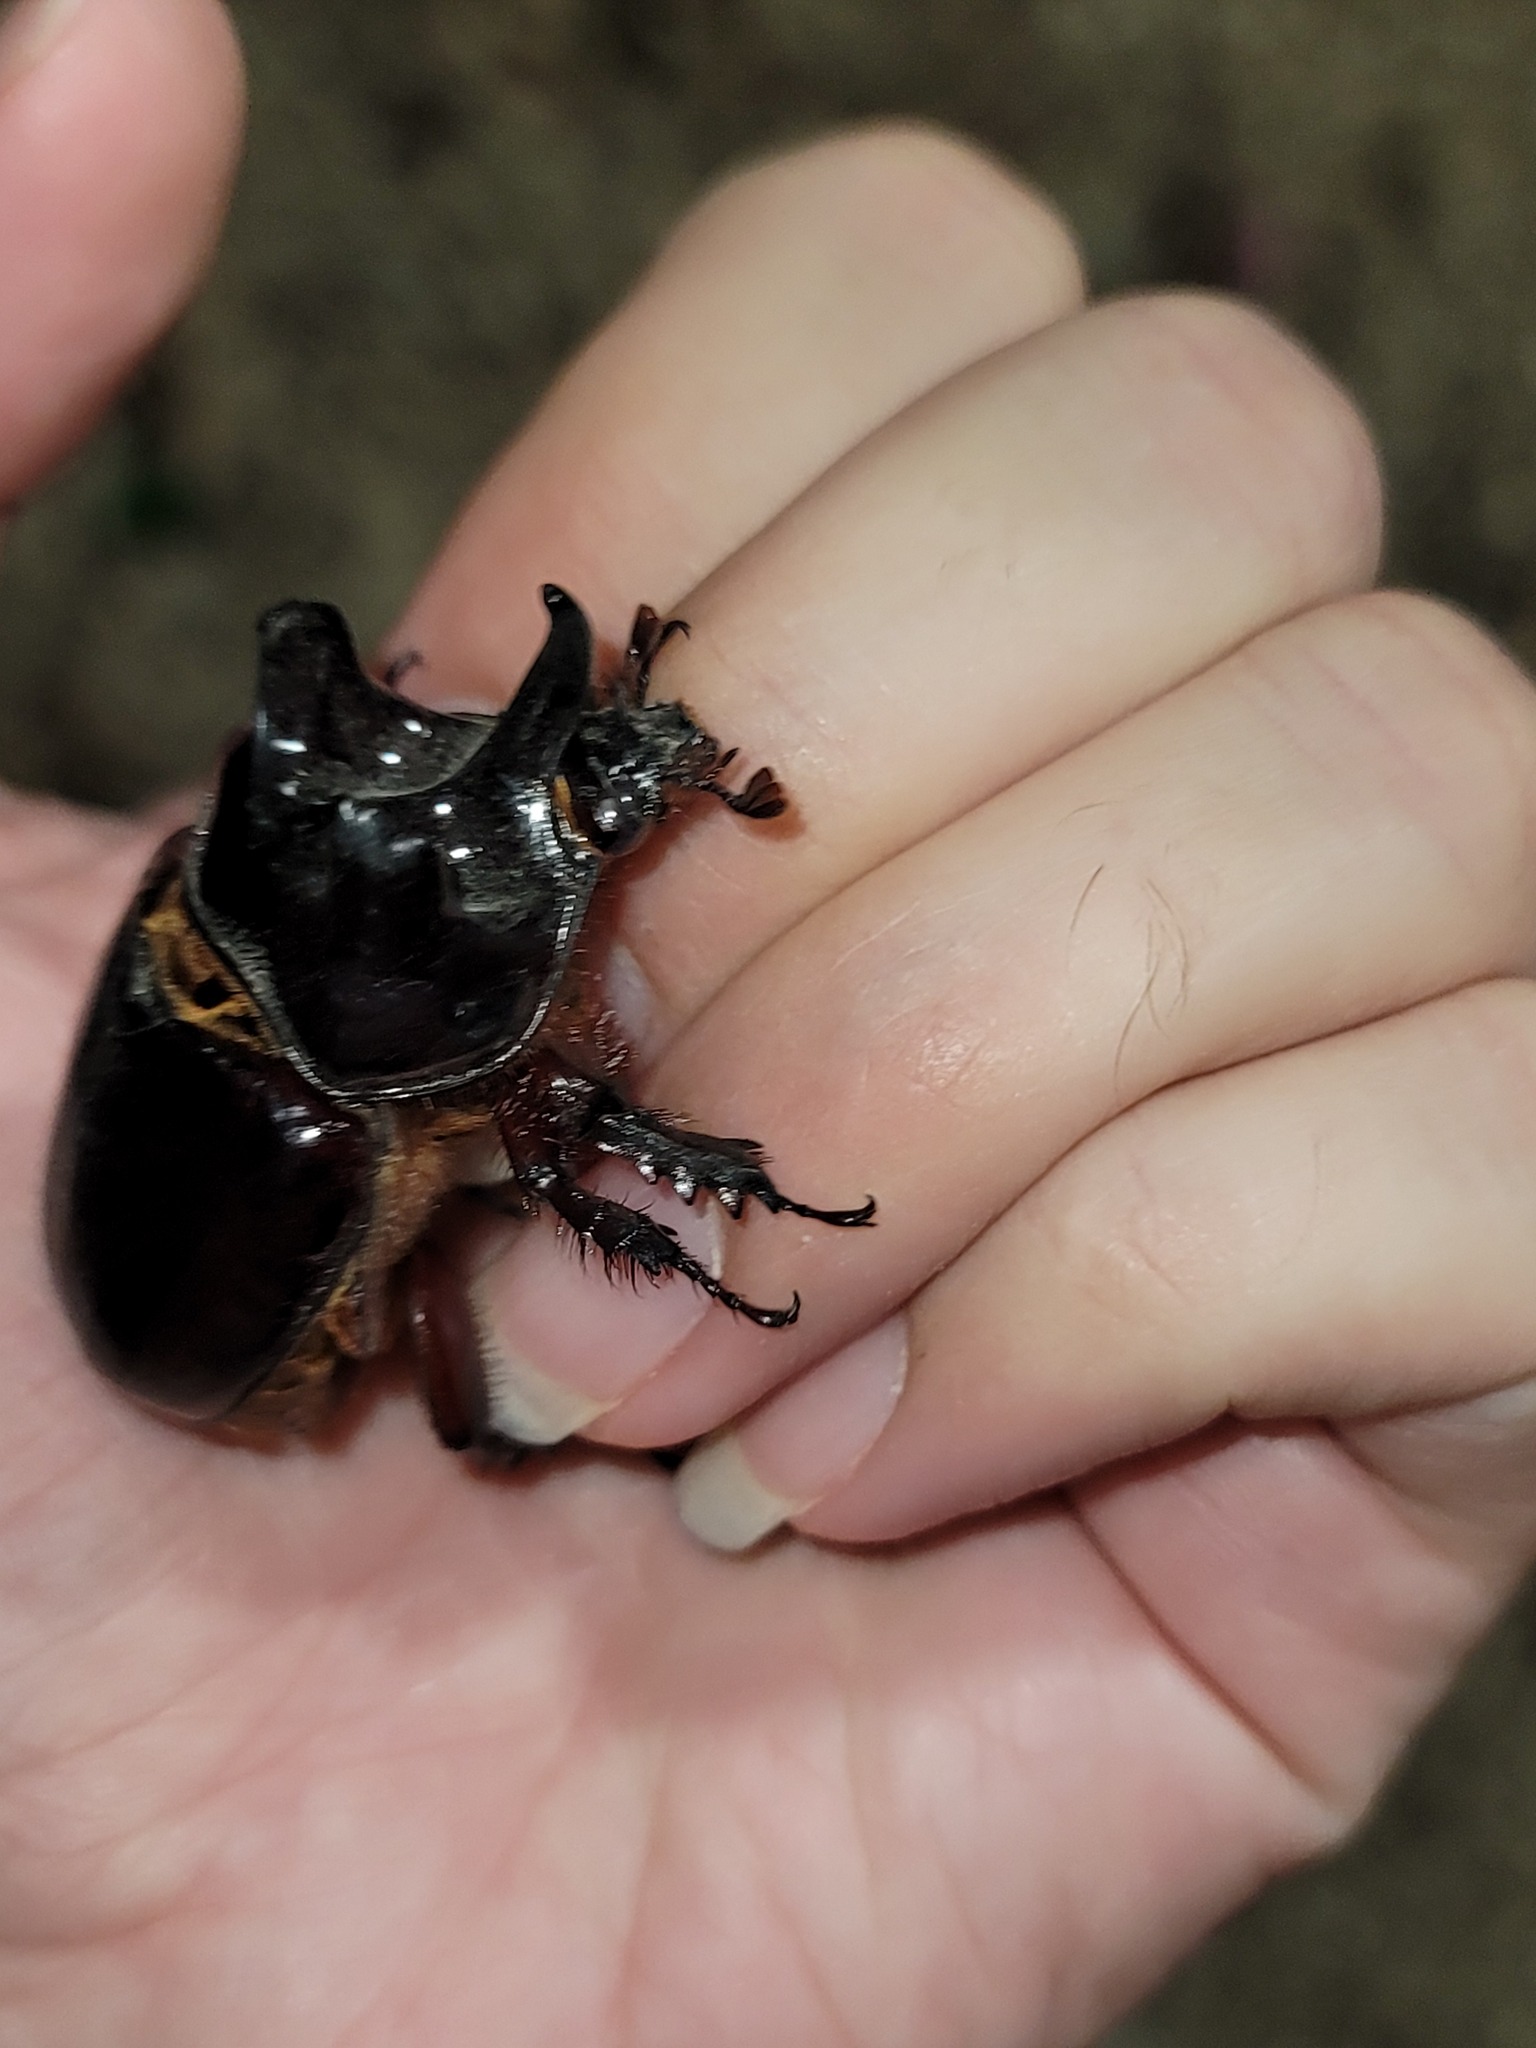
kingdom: Animalia
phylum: Arthropoda
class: Insecta
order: Coleoptera
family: Scarabaeidae
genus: Strategus
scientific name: Strategus aloeus
